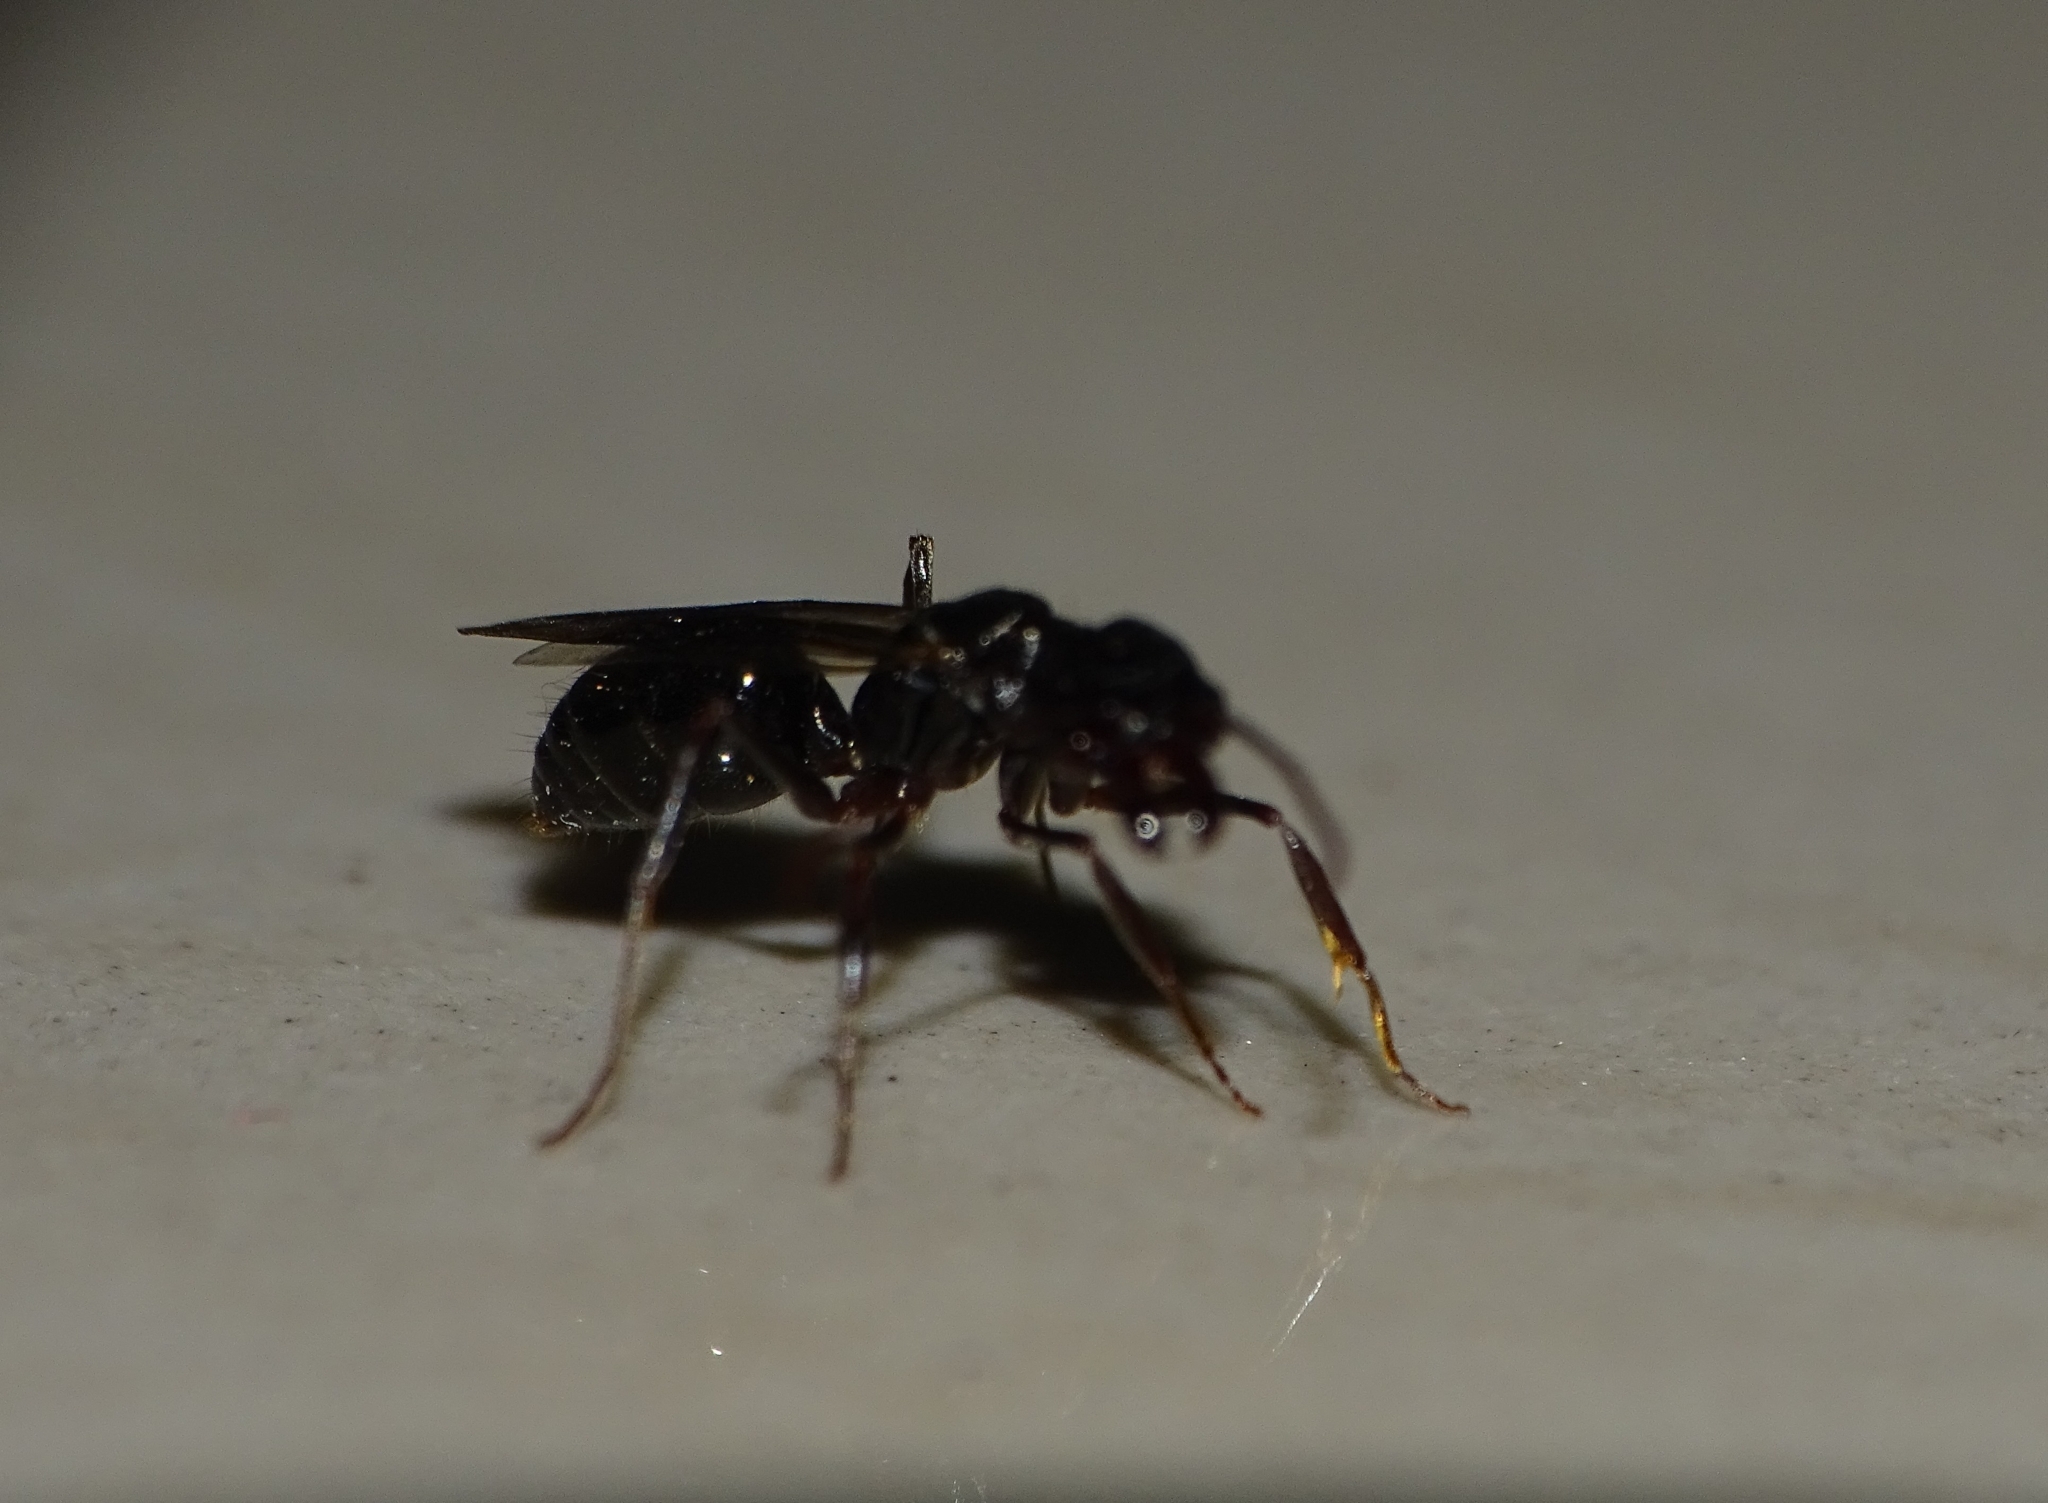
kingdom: Animalia
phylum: Arthropoda
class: Insecta
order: Hymenoptera
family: Formicidae
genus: Odontomachus
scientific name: Odontomachus simillimus
